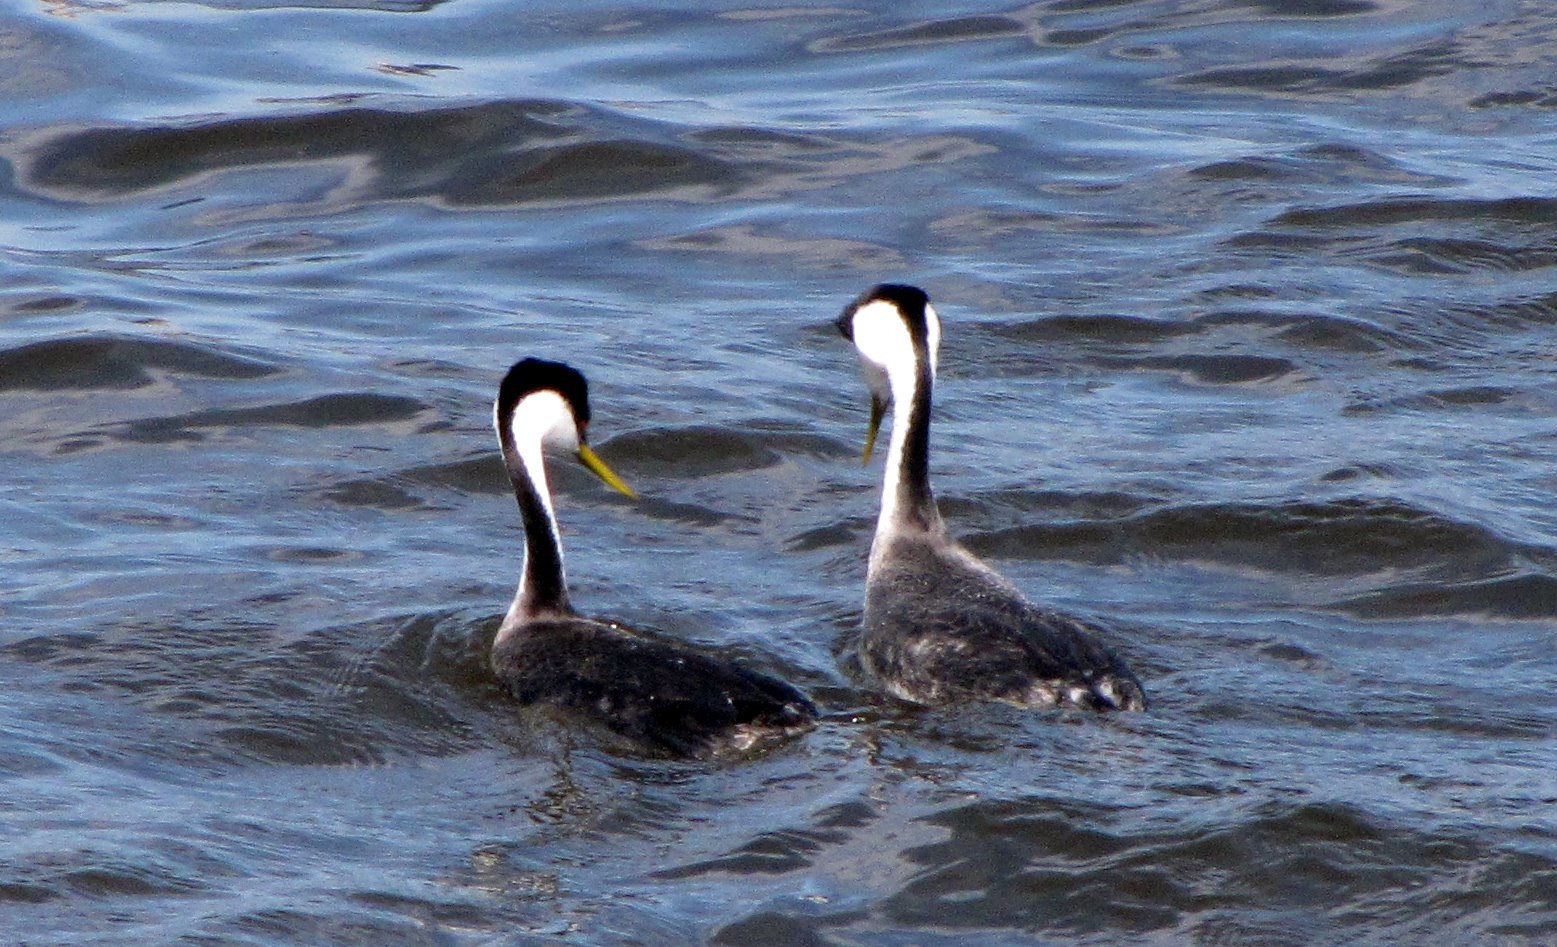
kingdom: Animalia
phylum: Chordata
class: Aves
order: Podicipediformes
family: Podicipedidae
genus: Aechmophorus
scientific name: Aechmophorus occidentalis
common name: Western grebe
